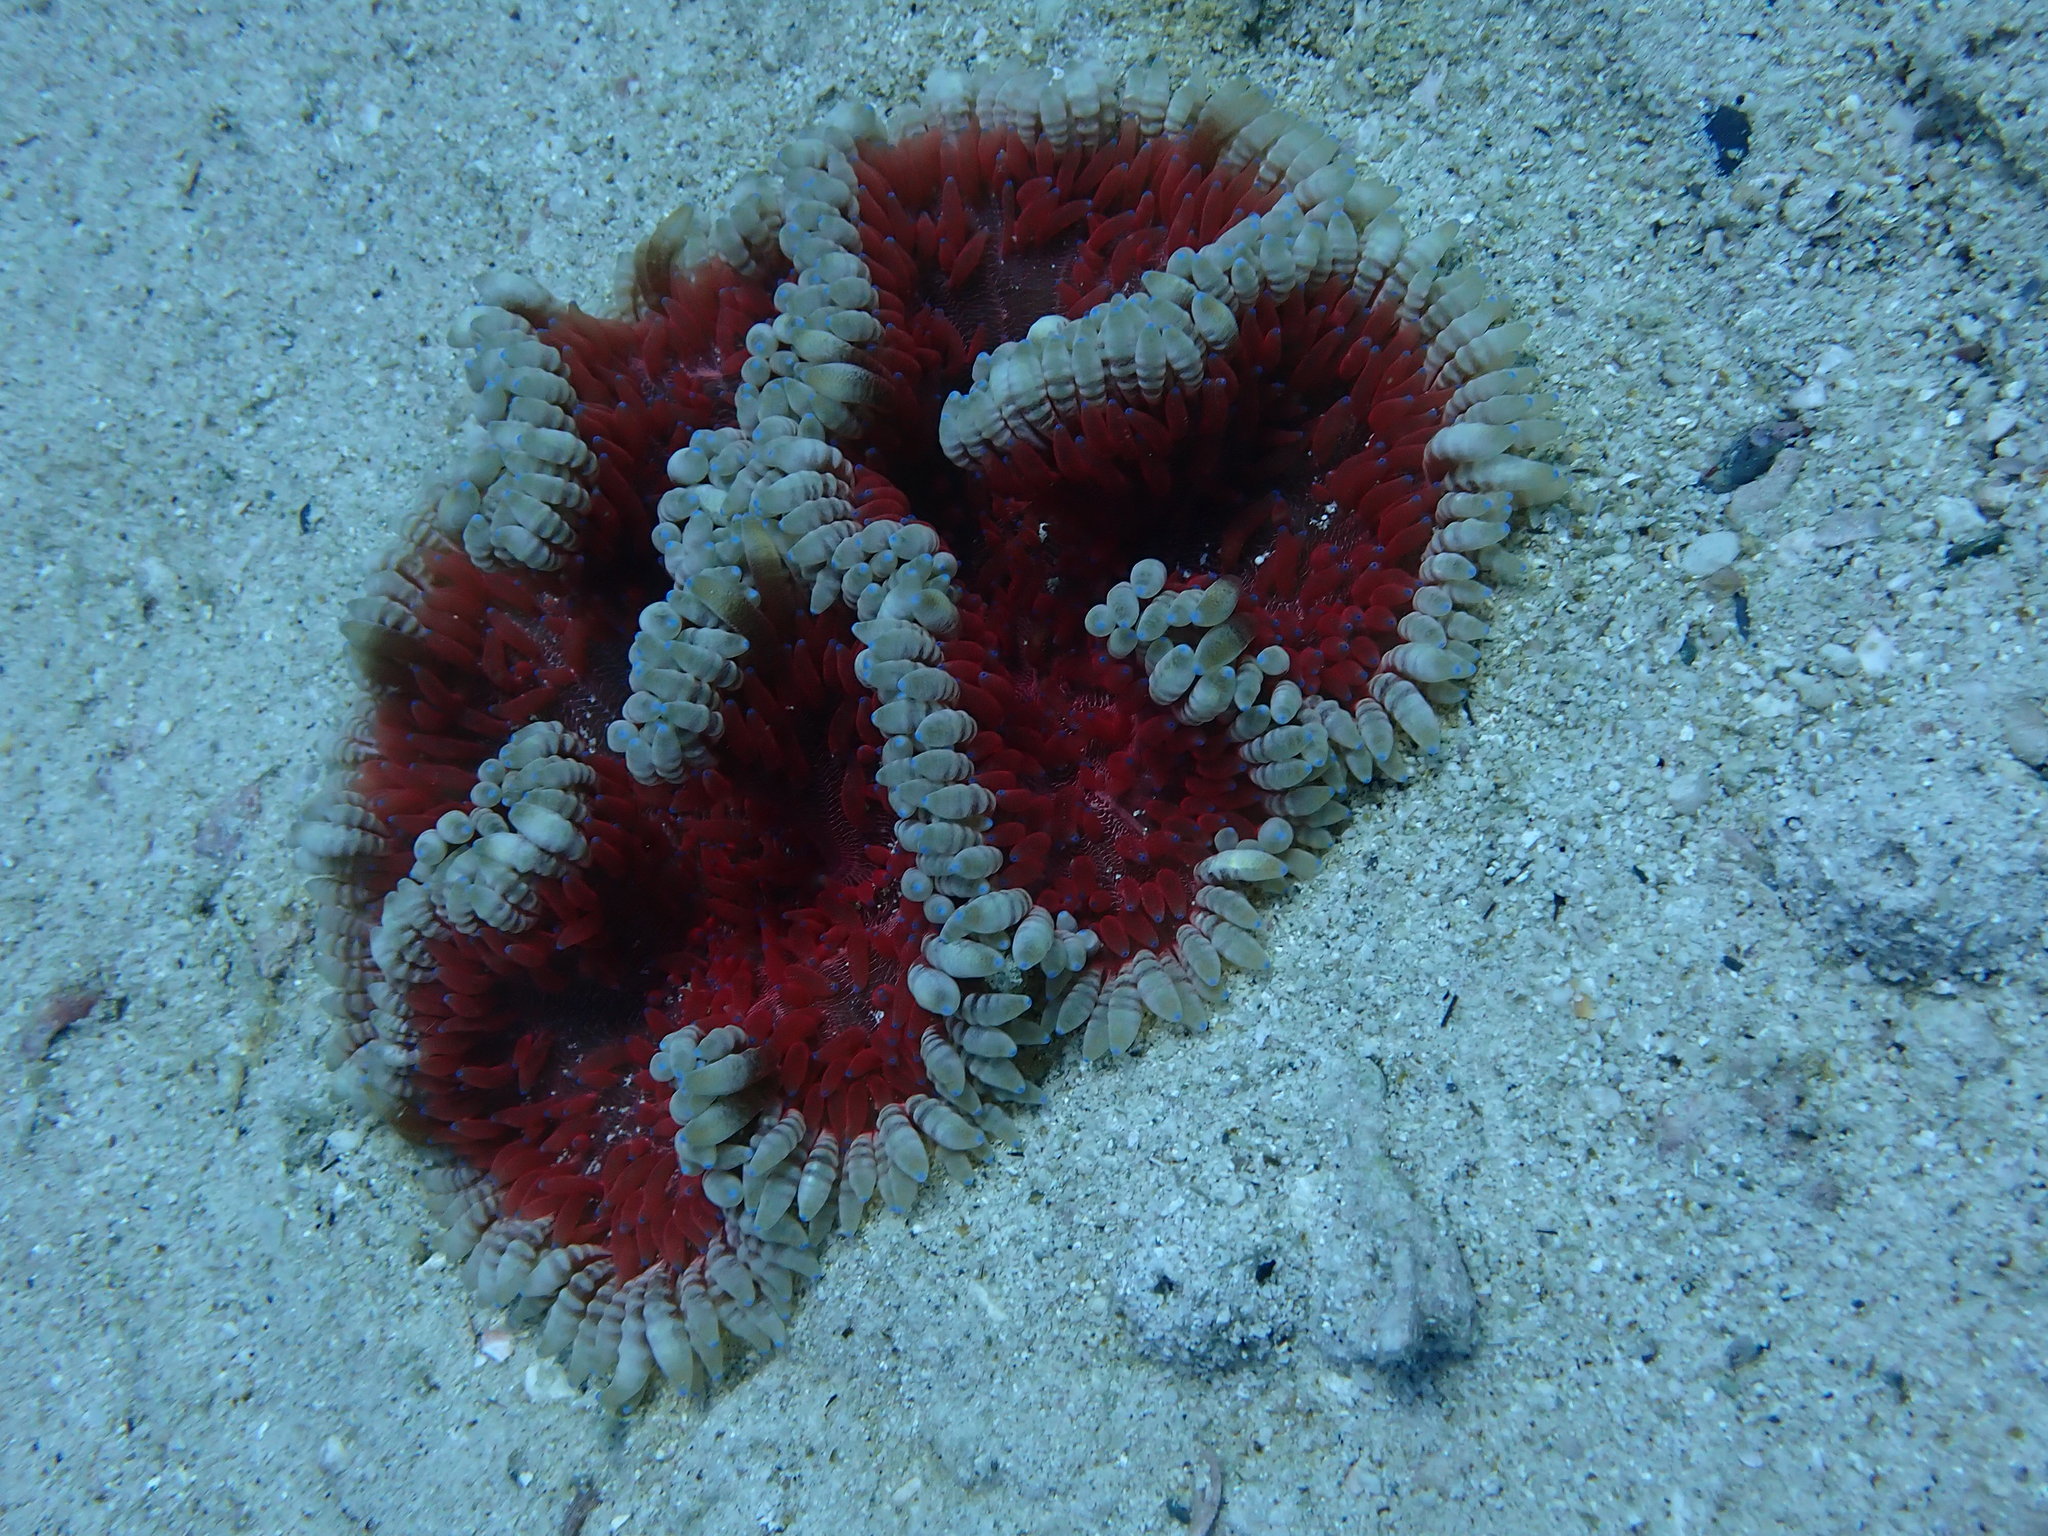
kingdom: Animalia
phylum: Cnidaria
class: Anthozoa
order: Actiniaria
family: Heteractidae
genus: Heteractis
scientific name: Heteractis aurora
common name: Beaded sea anemone
